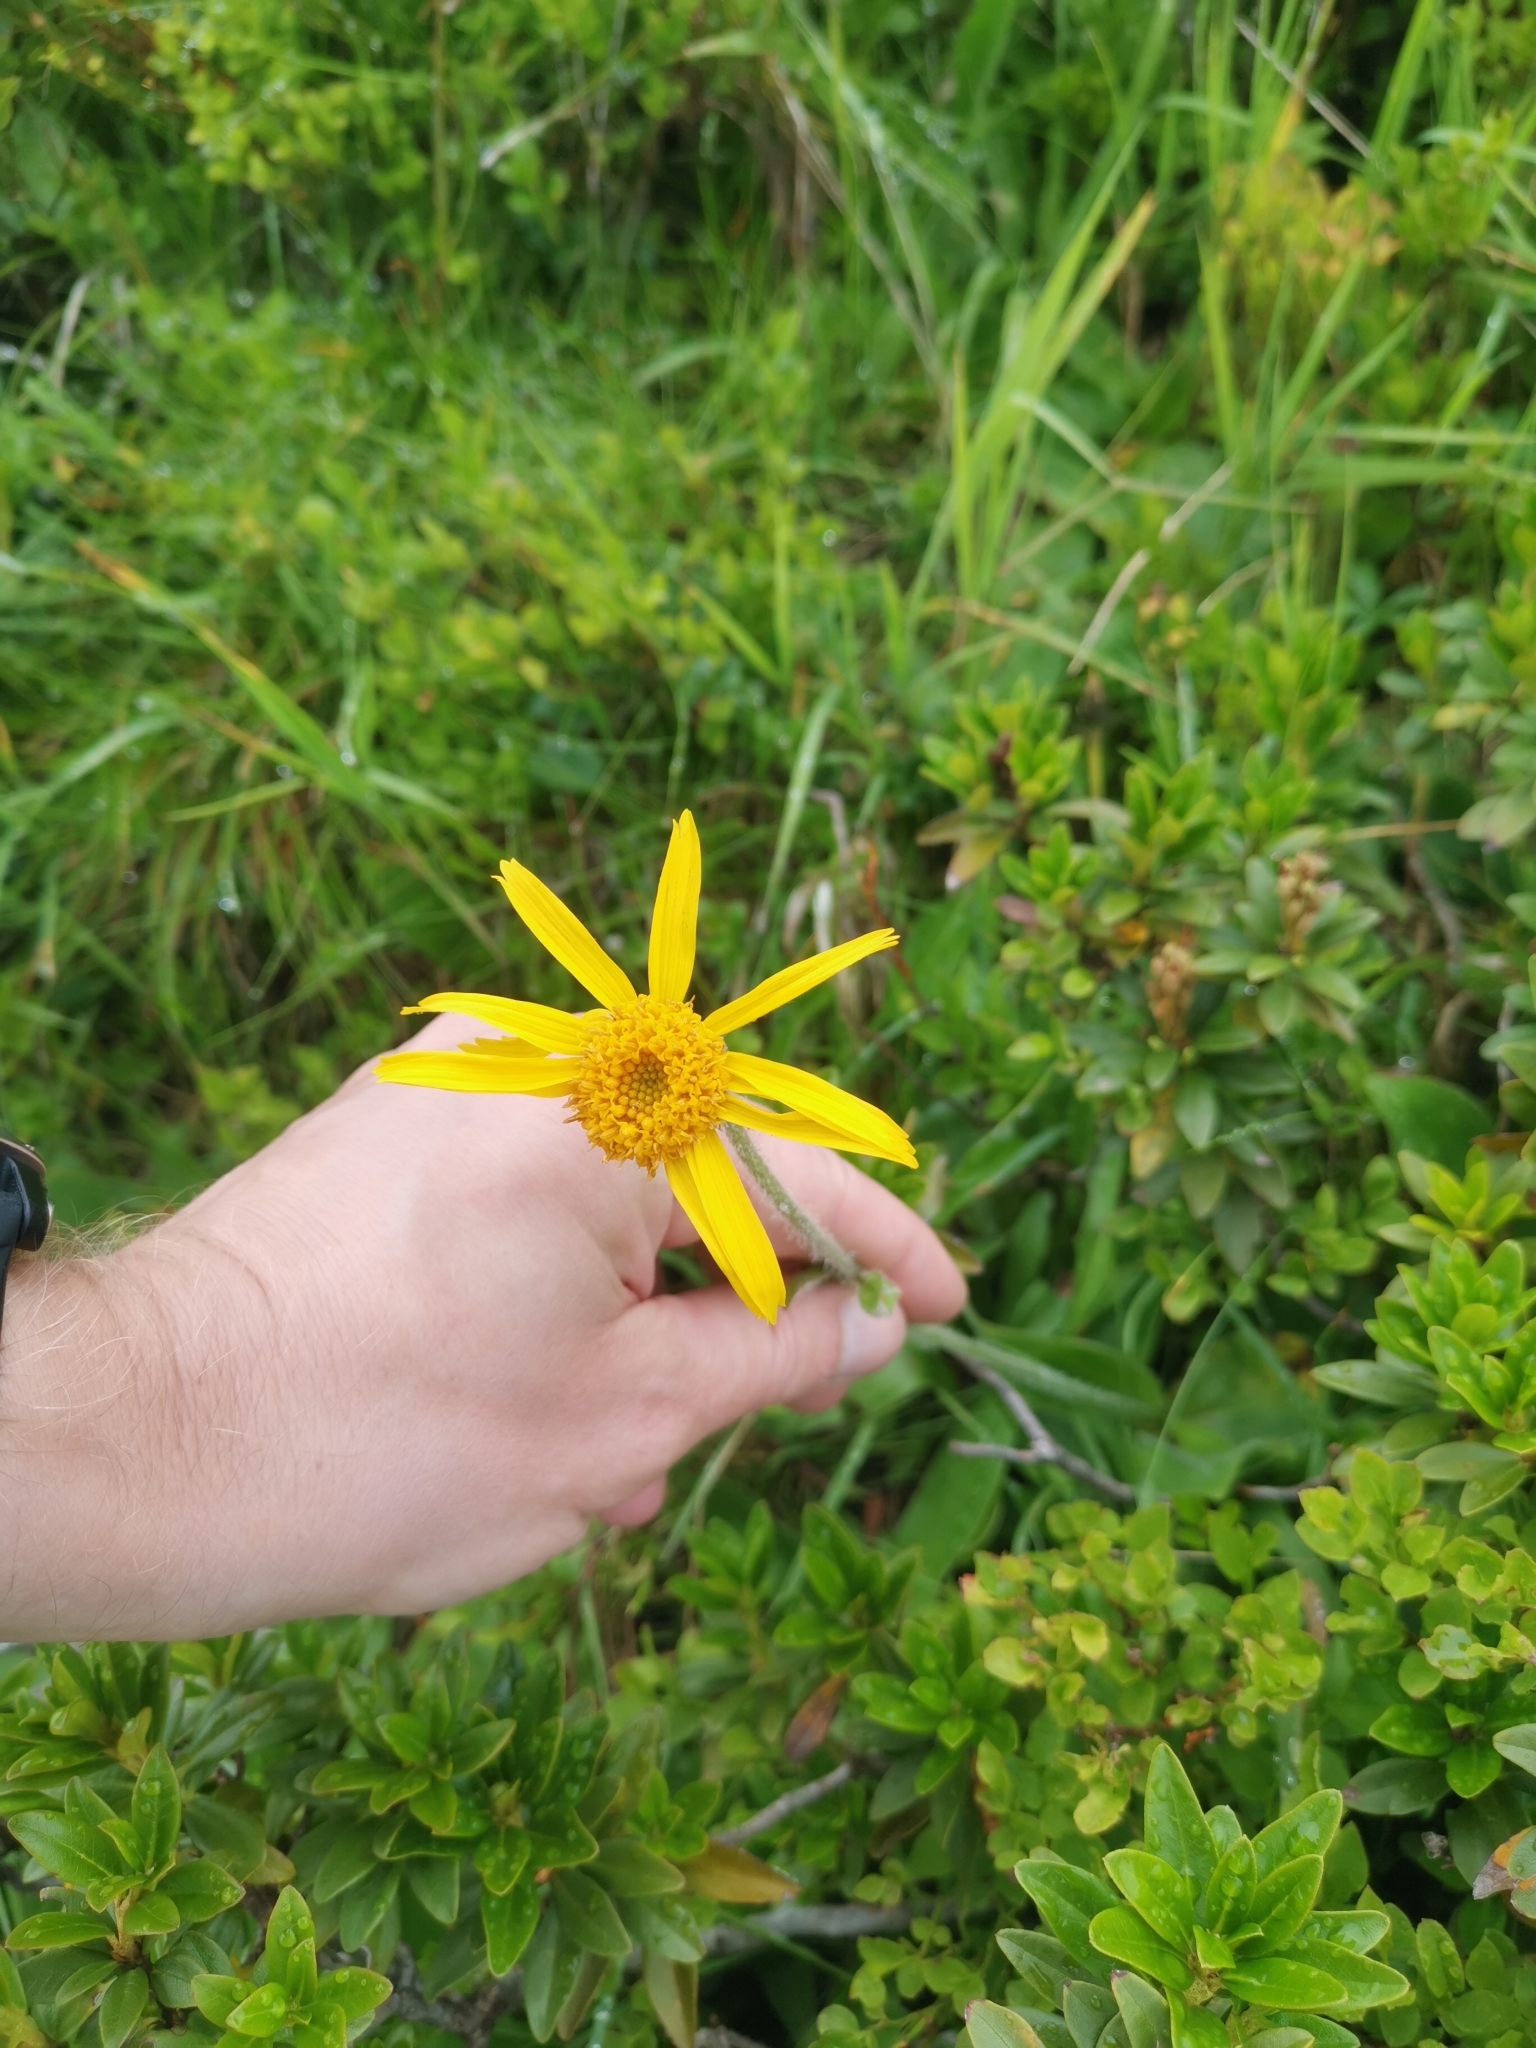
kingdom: Plantae
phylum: Tracheophyta
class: Magnoliopsida
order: Asterales
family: Asteraceae
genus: Arnica
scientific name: Arnica montana
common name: Leopard's bane
